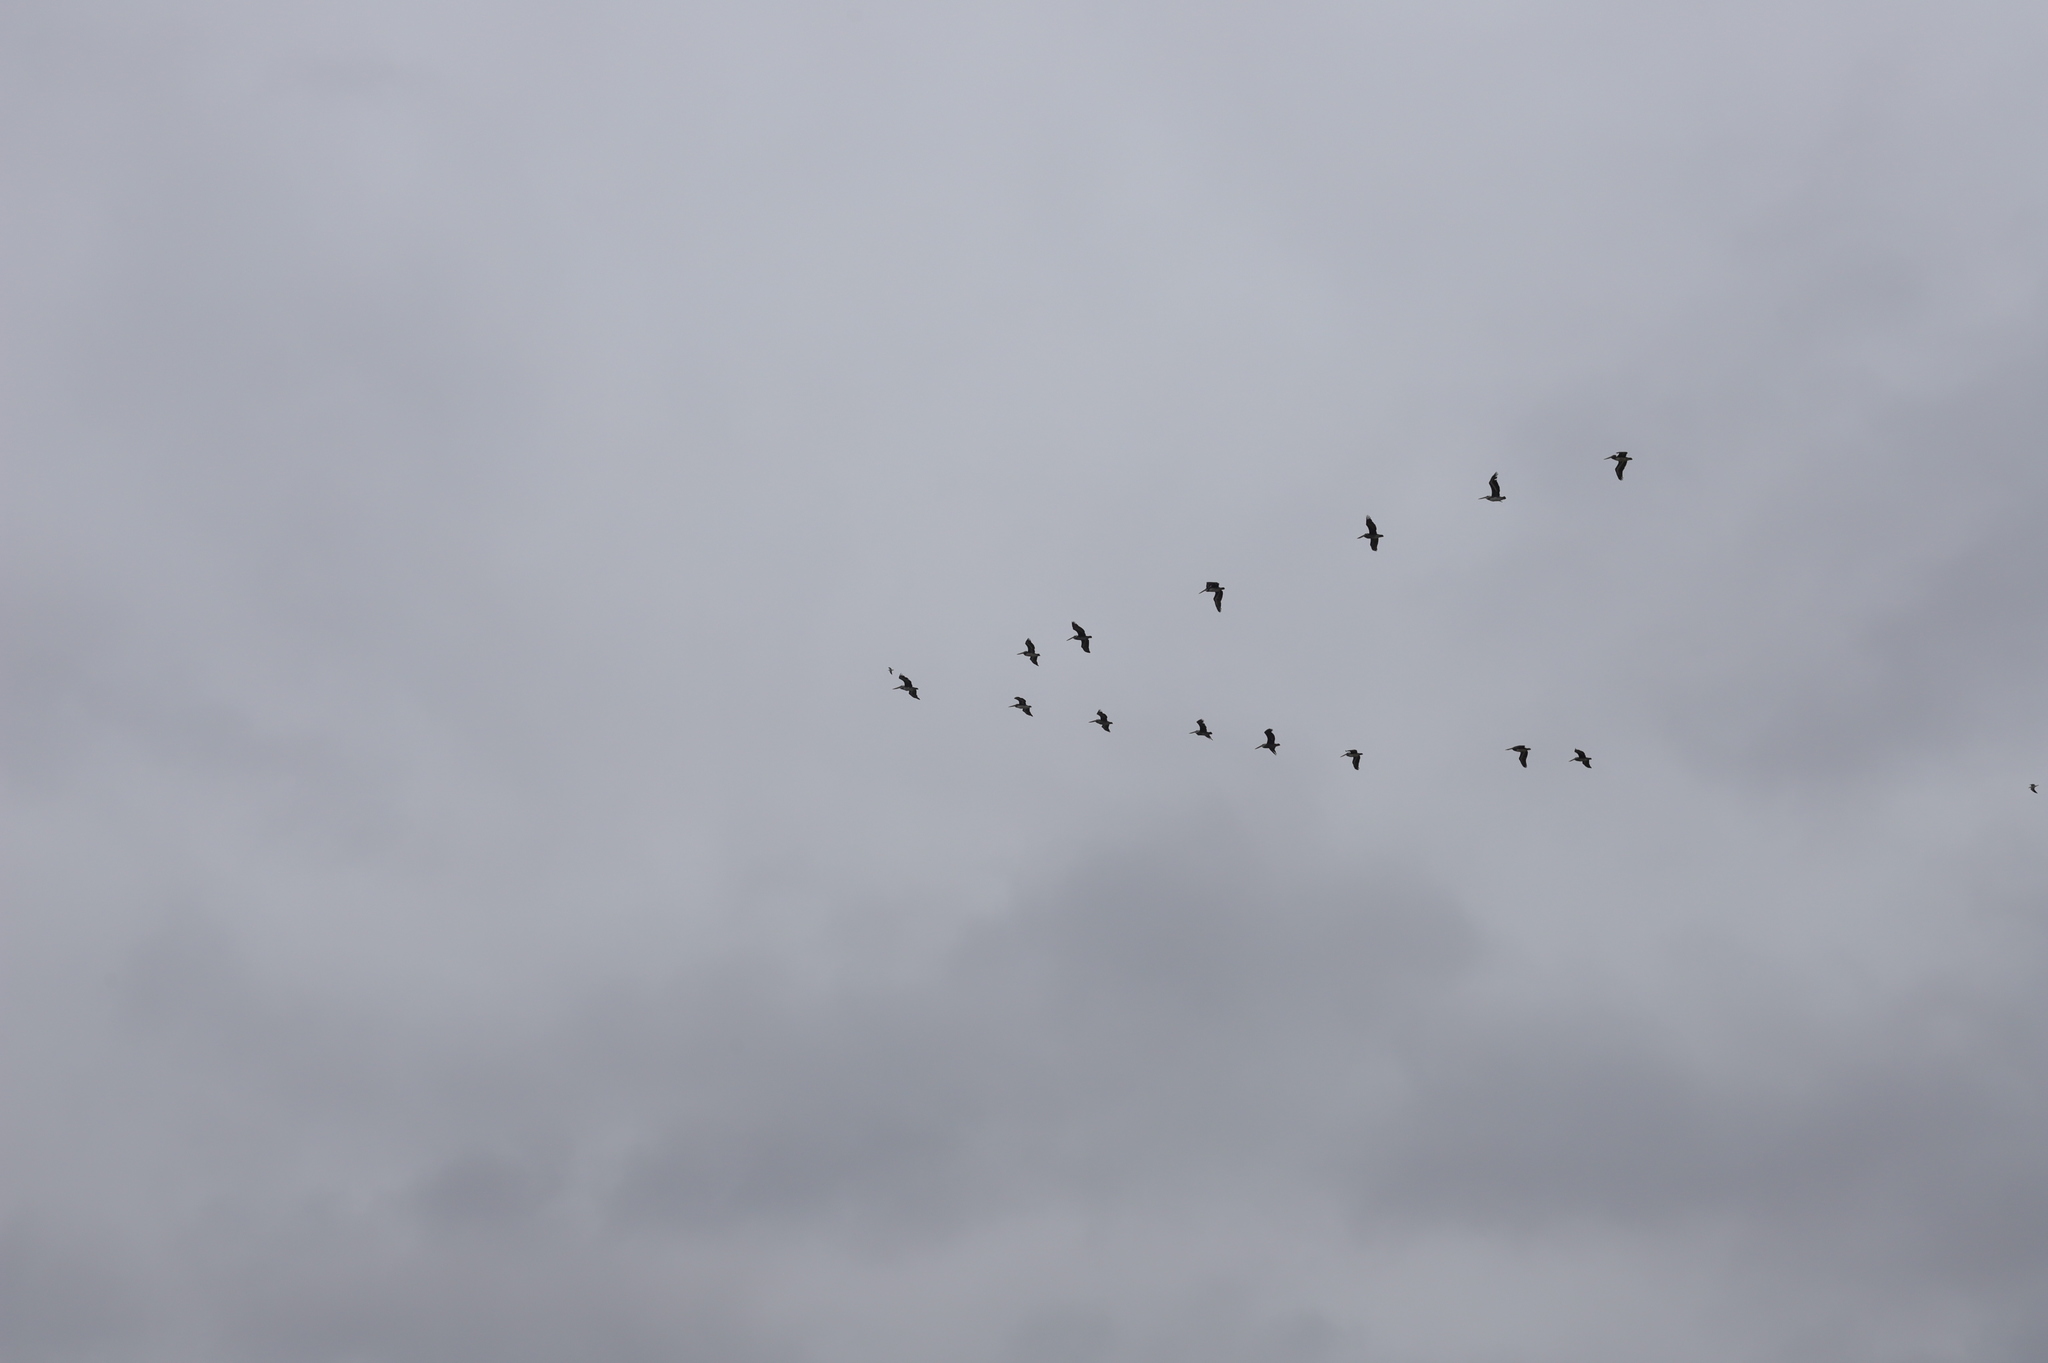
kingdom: Animalia
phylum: Chordata
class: Aves
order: Pelecaniformes
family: Pelecanidae
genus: Pelecanus
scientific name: Pelecanus thagus
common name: Peruvian pelican
